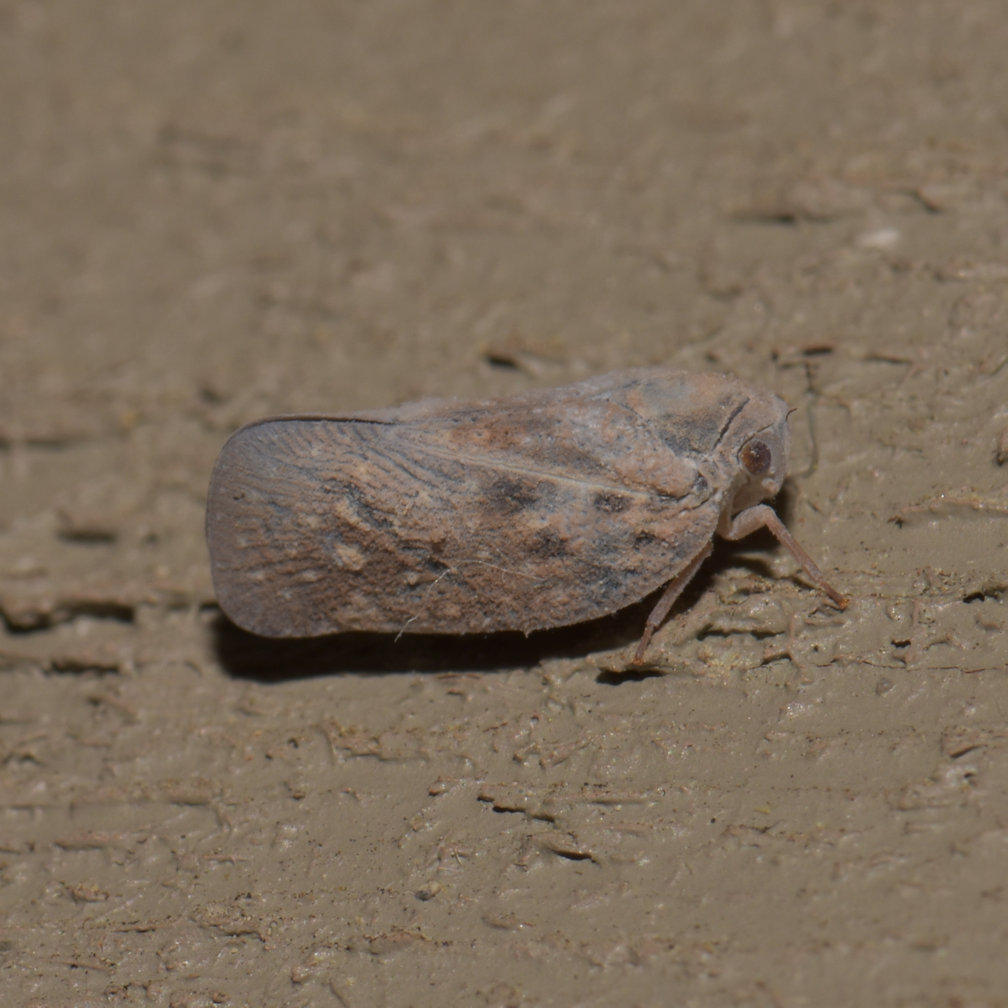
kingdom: Animalia
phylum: Arthropoda
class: Insecta
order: Hemiptera
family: Flatidae
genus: Metcalfa
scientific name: Metcalfa pruinosa
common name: Citrus flatid planthopper
